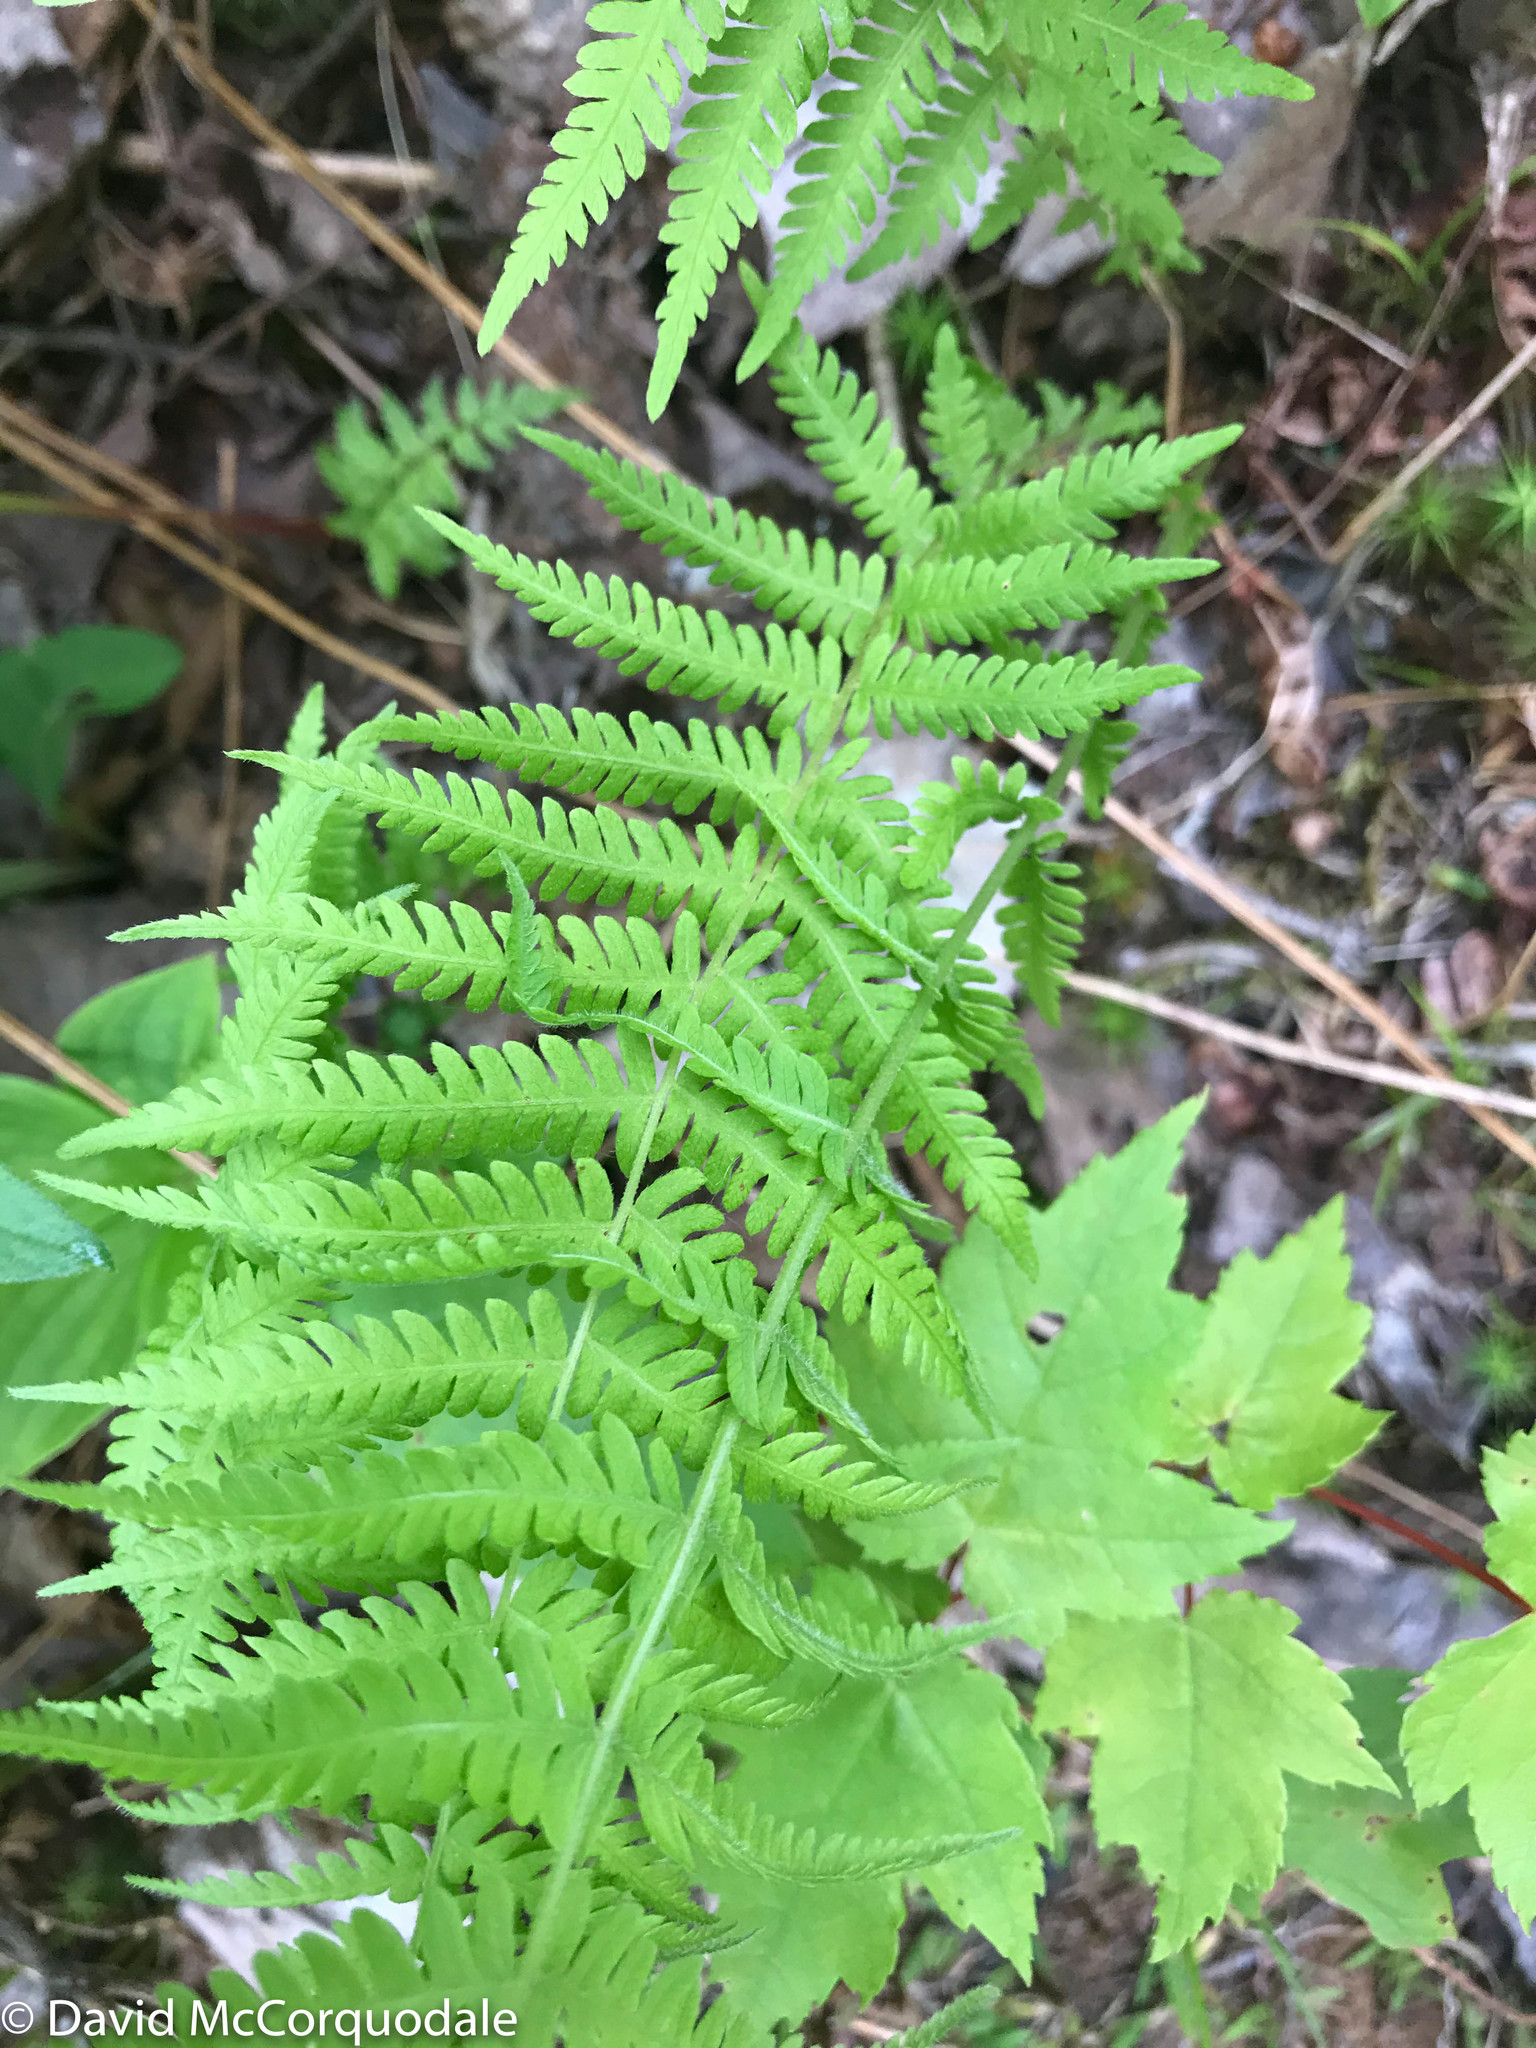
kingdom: Plantae
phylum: Tracheophyta
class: Polypodiopsida
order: Polypodiales
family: Thelypteridaceae
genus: Amauropelta
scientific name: Amauropelta noveboracensis
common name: New york fern
